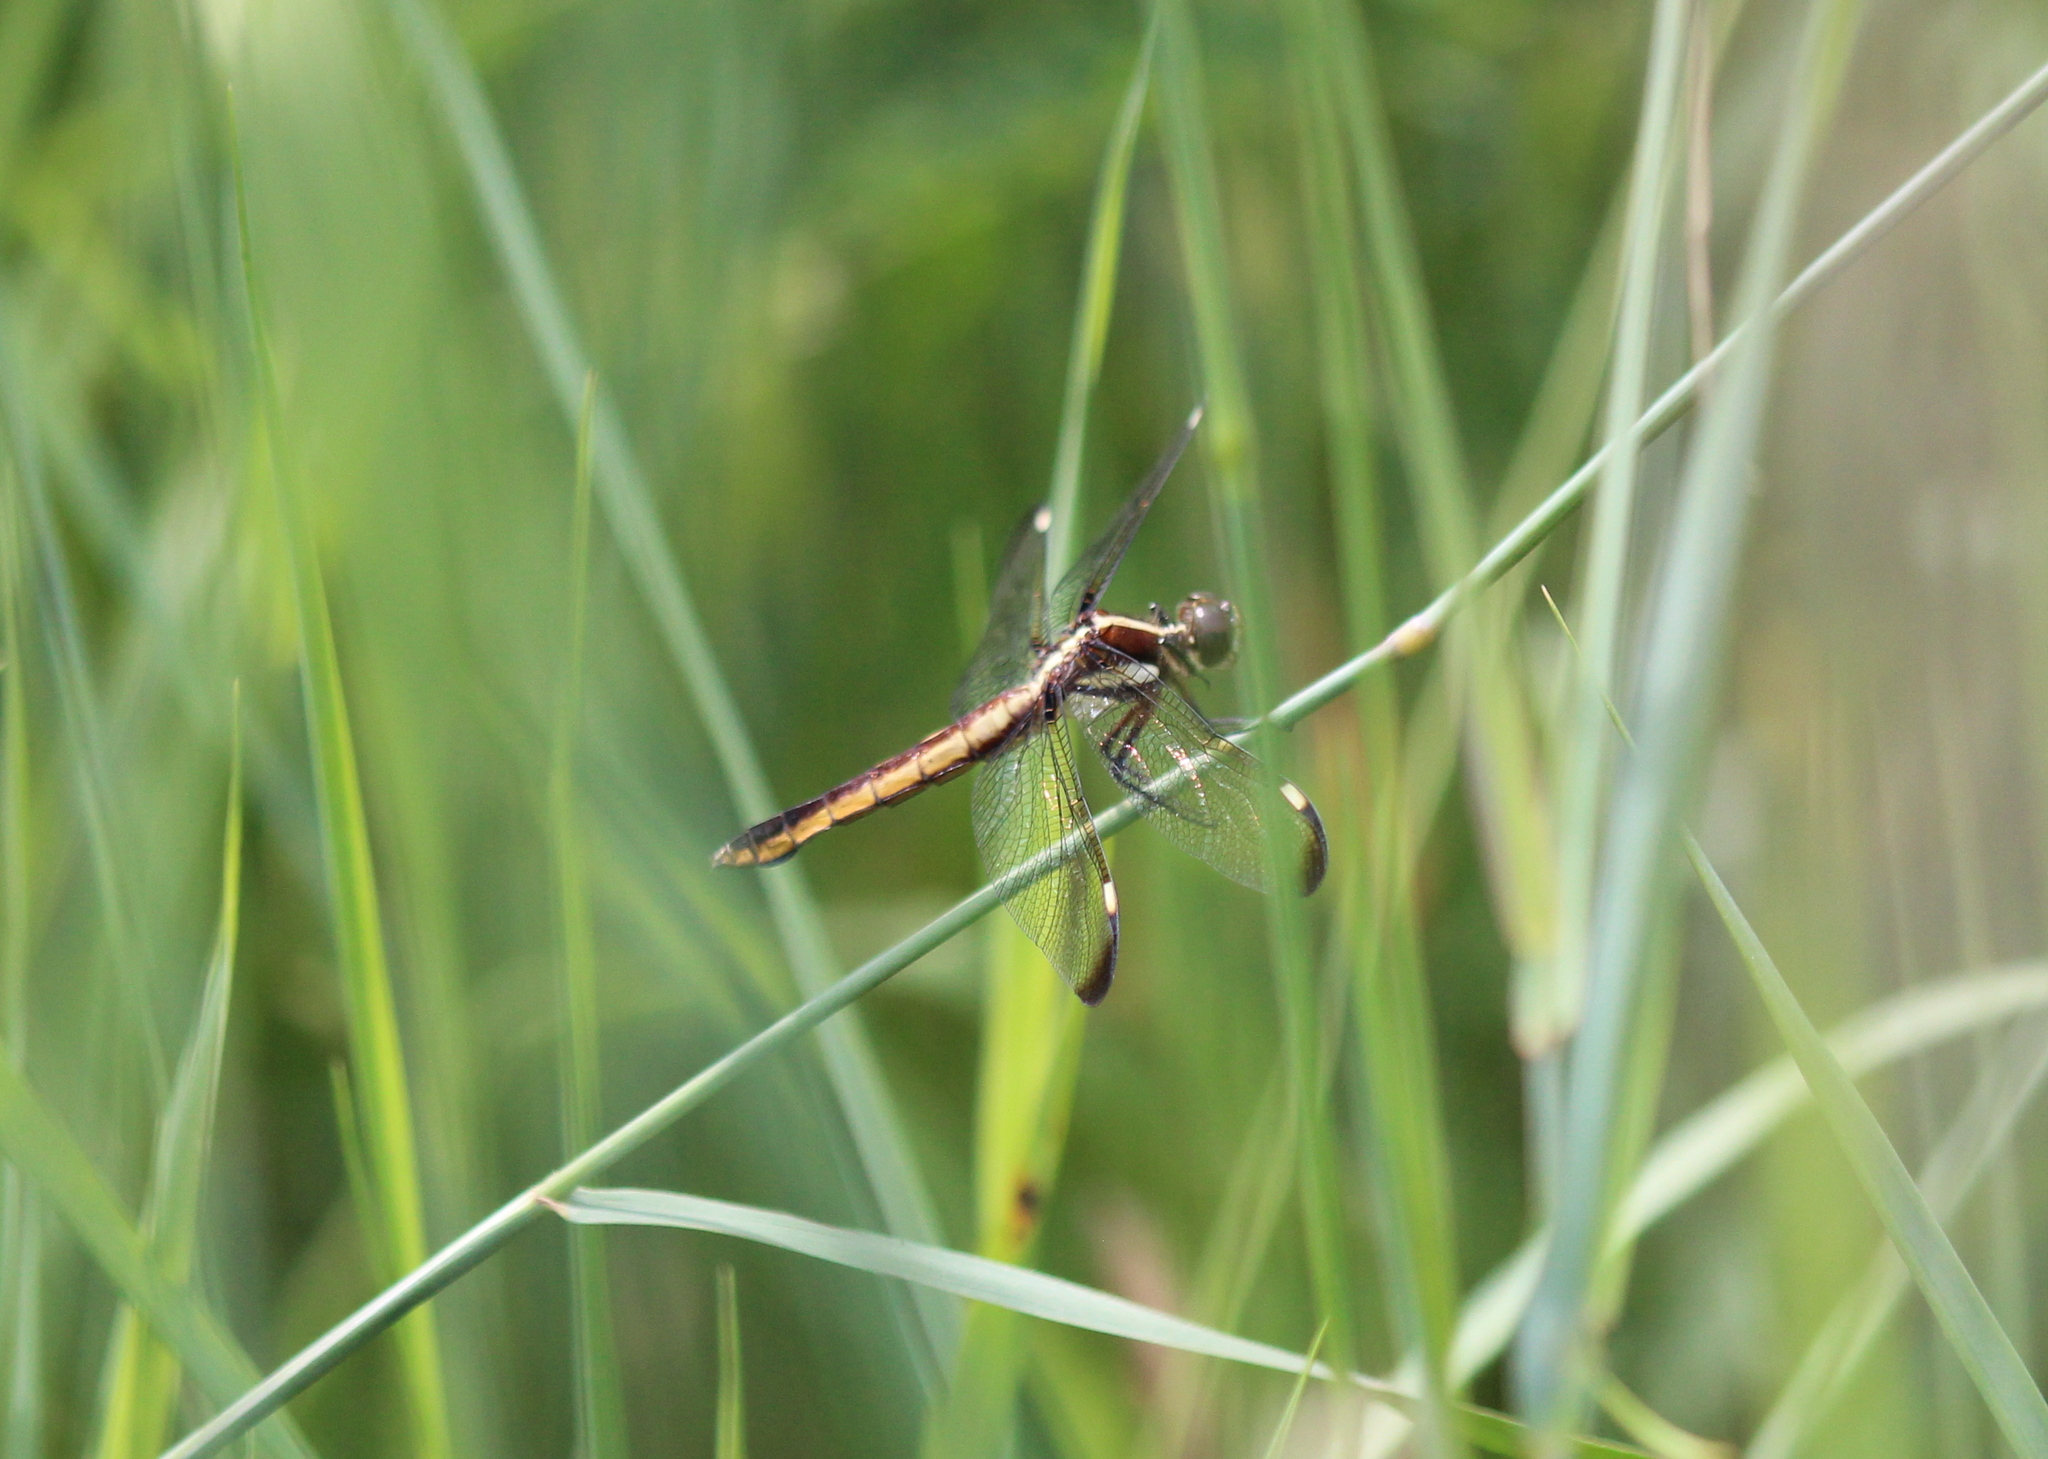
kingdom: Animalia
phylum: Arthropoda
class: Insecta
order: Odonata
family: Libellulidae
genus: Libellula
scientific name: Libellula cyanea
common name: Spangled skimmer
